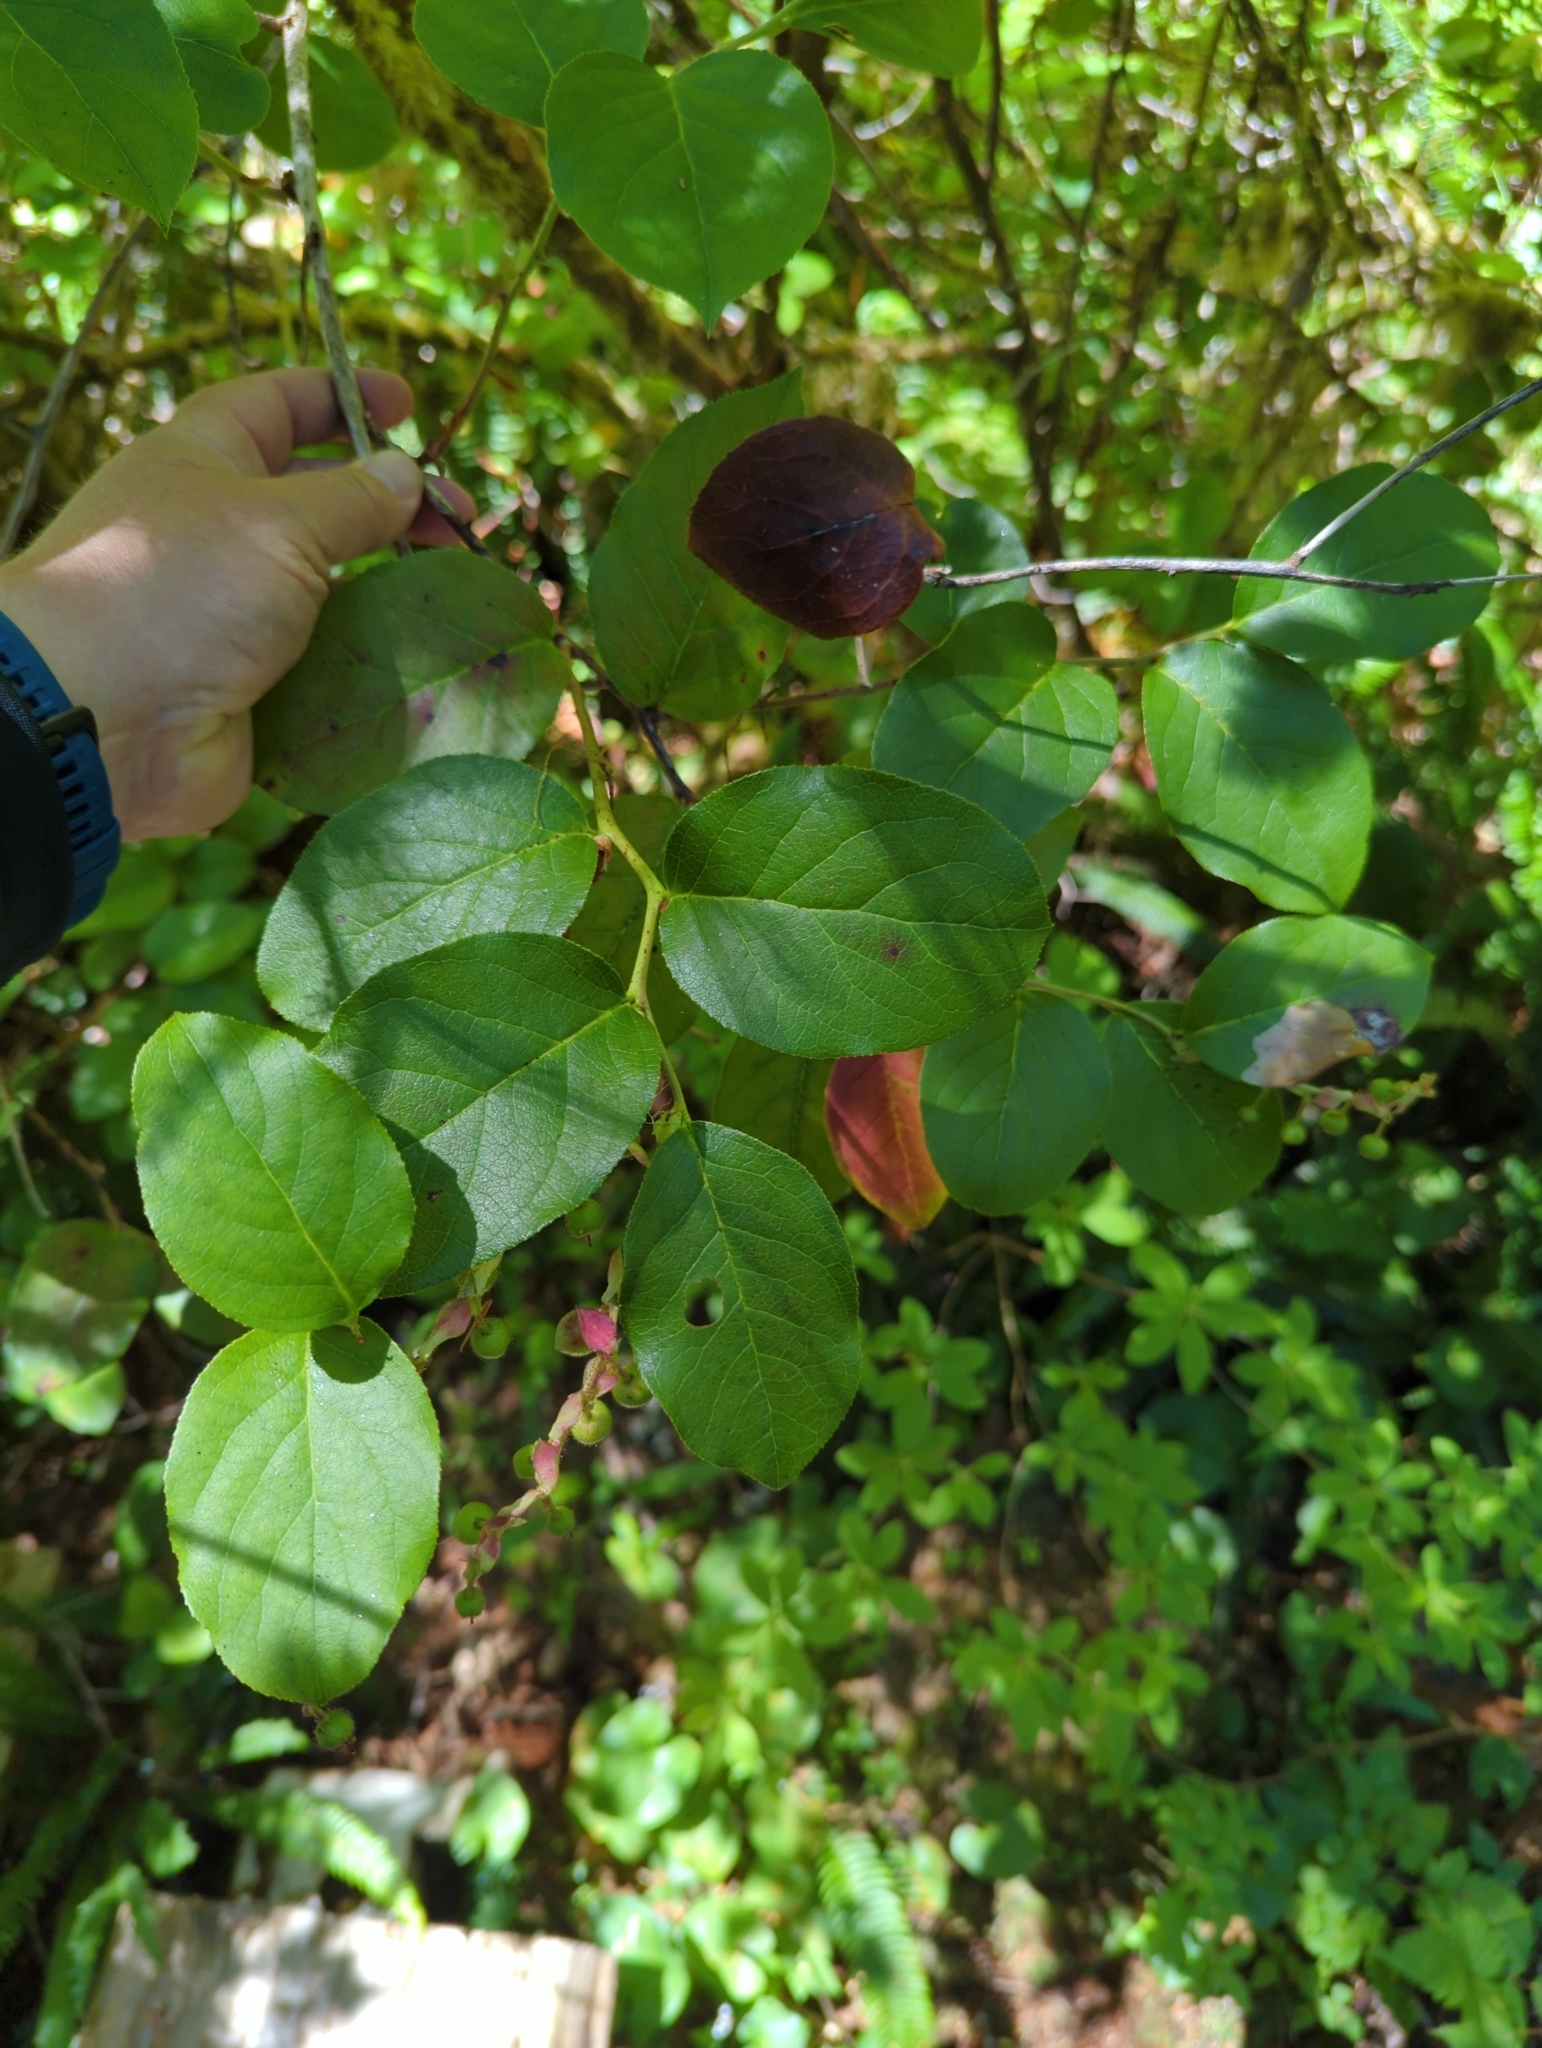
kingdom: Plantae
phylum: Tracheophyta
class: Magnoliopsida
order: Ericales
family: Ericaceae
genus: Gaultheria
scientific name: Gaultheria shallon
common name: Shallon
